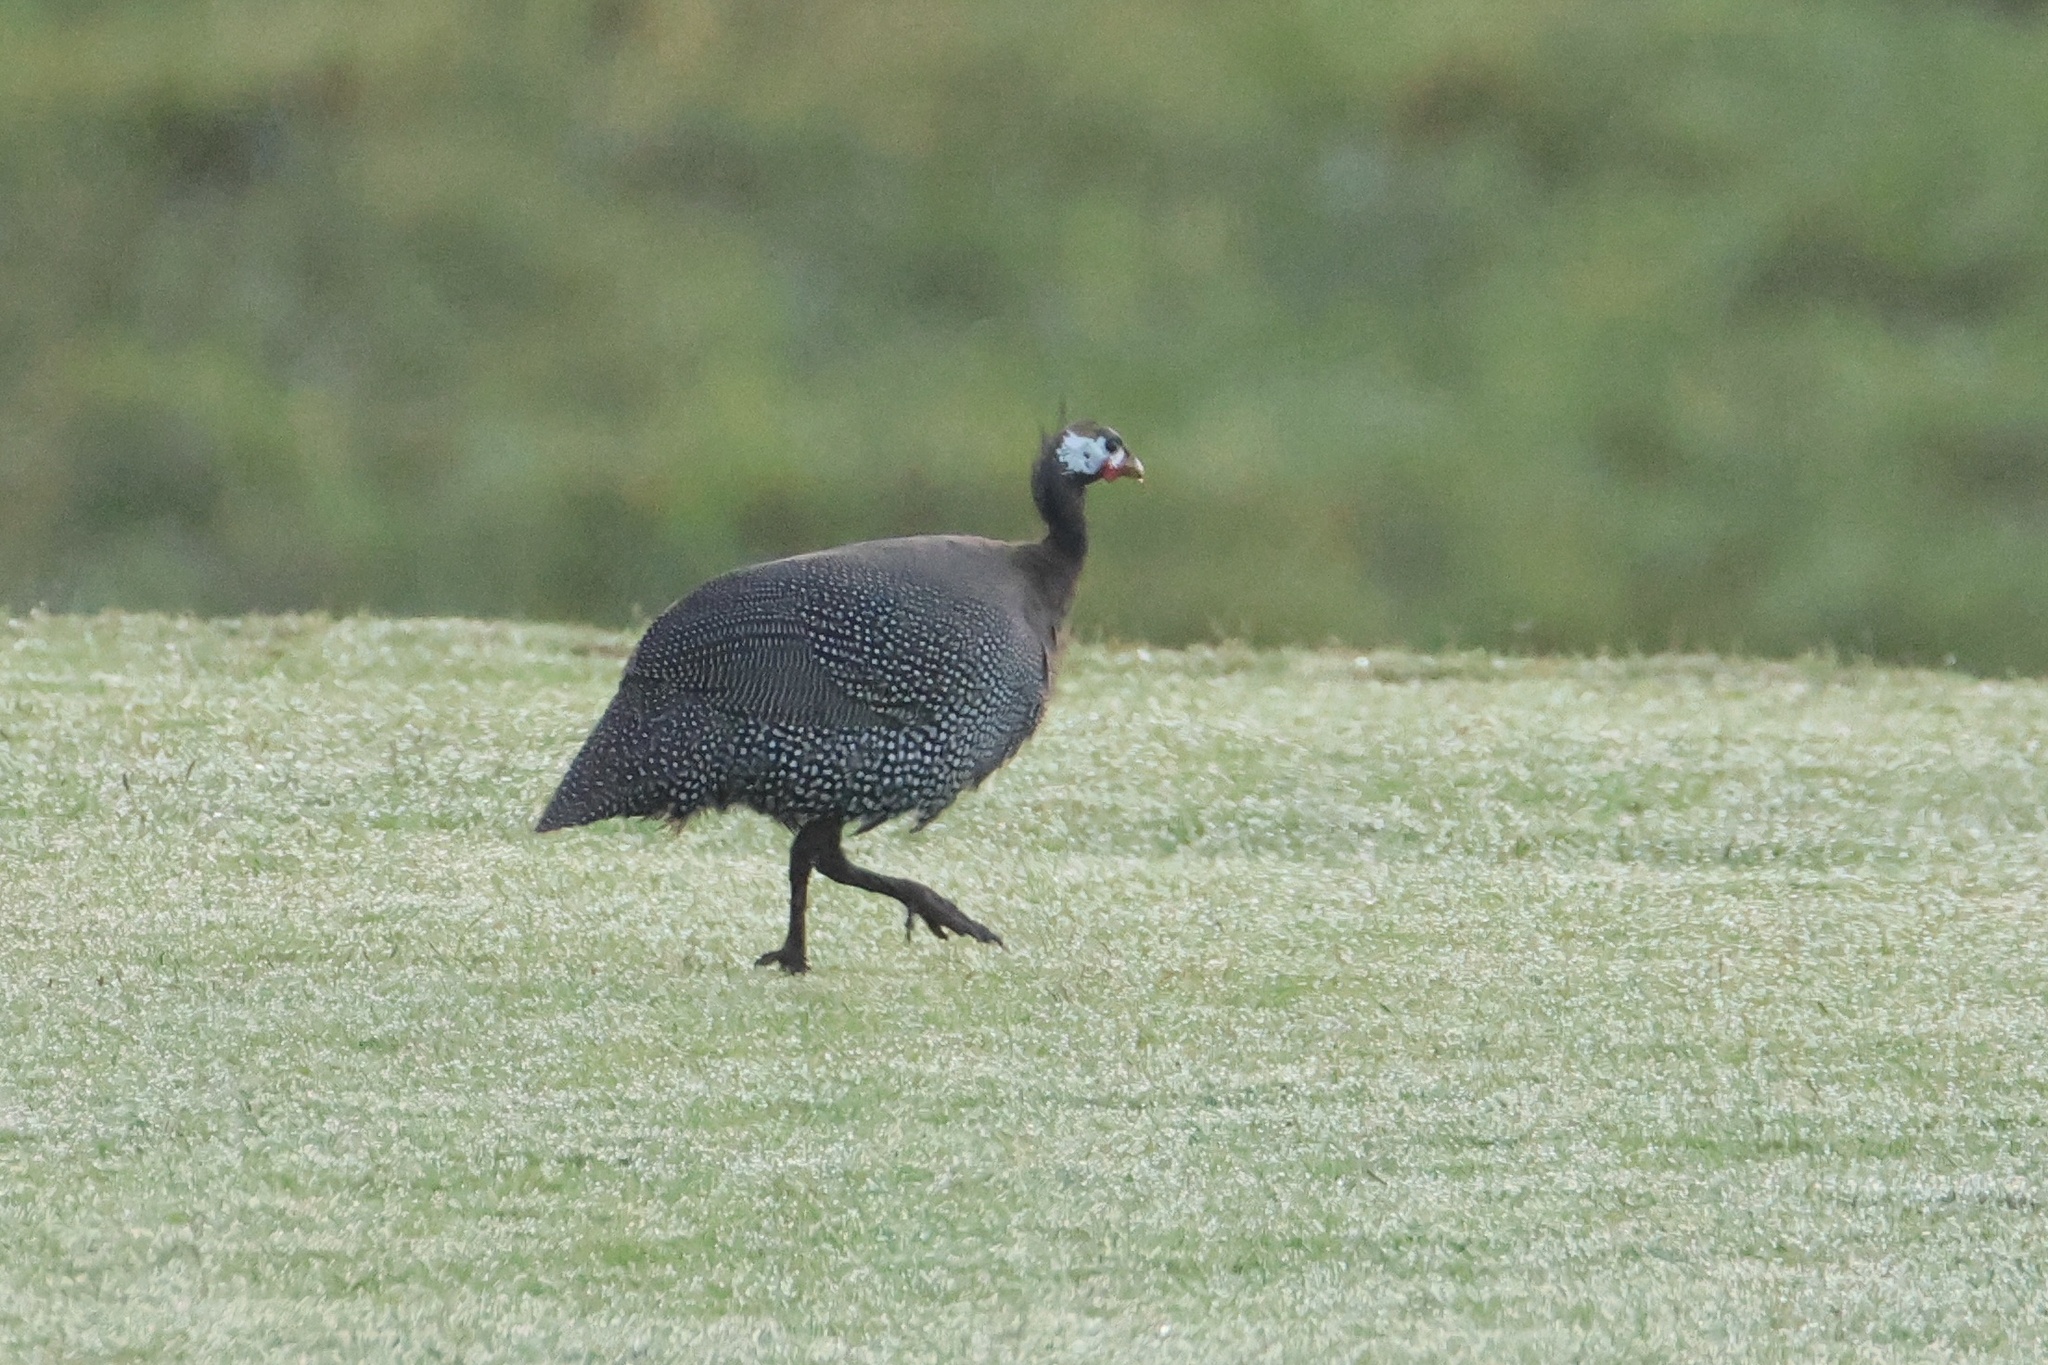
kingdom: Animalia
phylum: Chordata
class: Aves
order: Galliformes
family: Numididae
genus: Numida
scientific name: Numida meleagris
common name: Helmeted guineafowl
